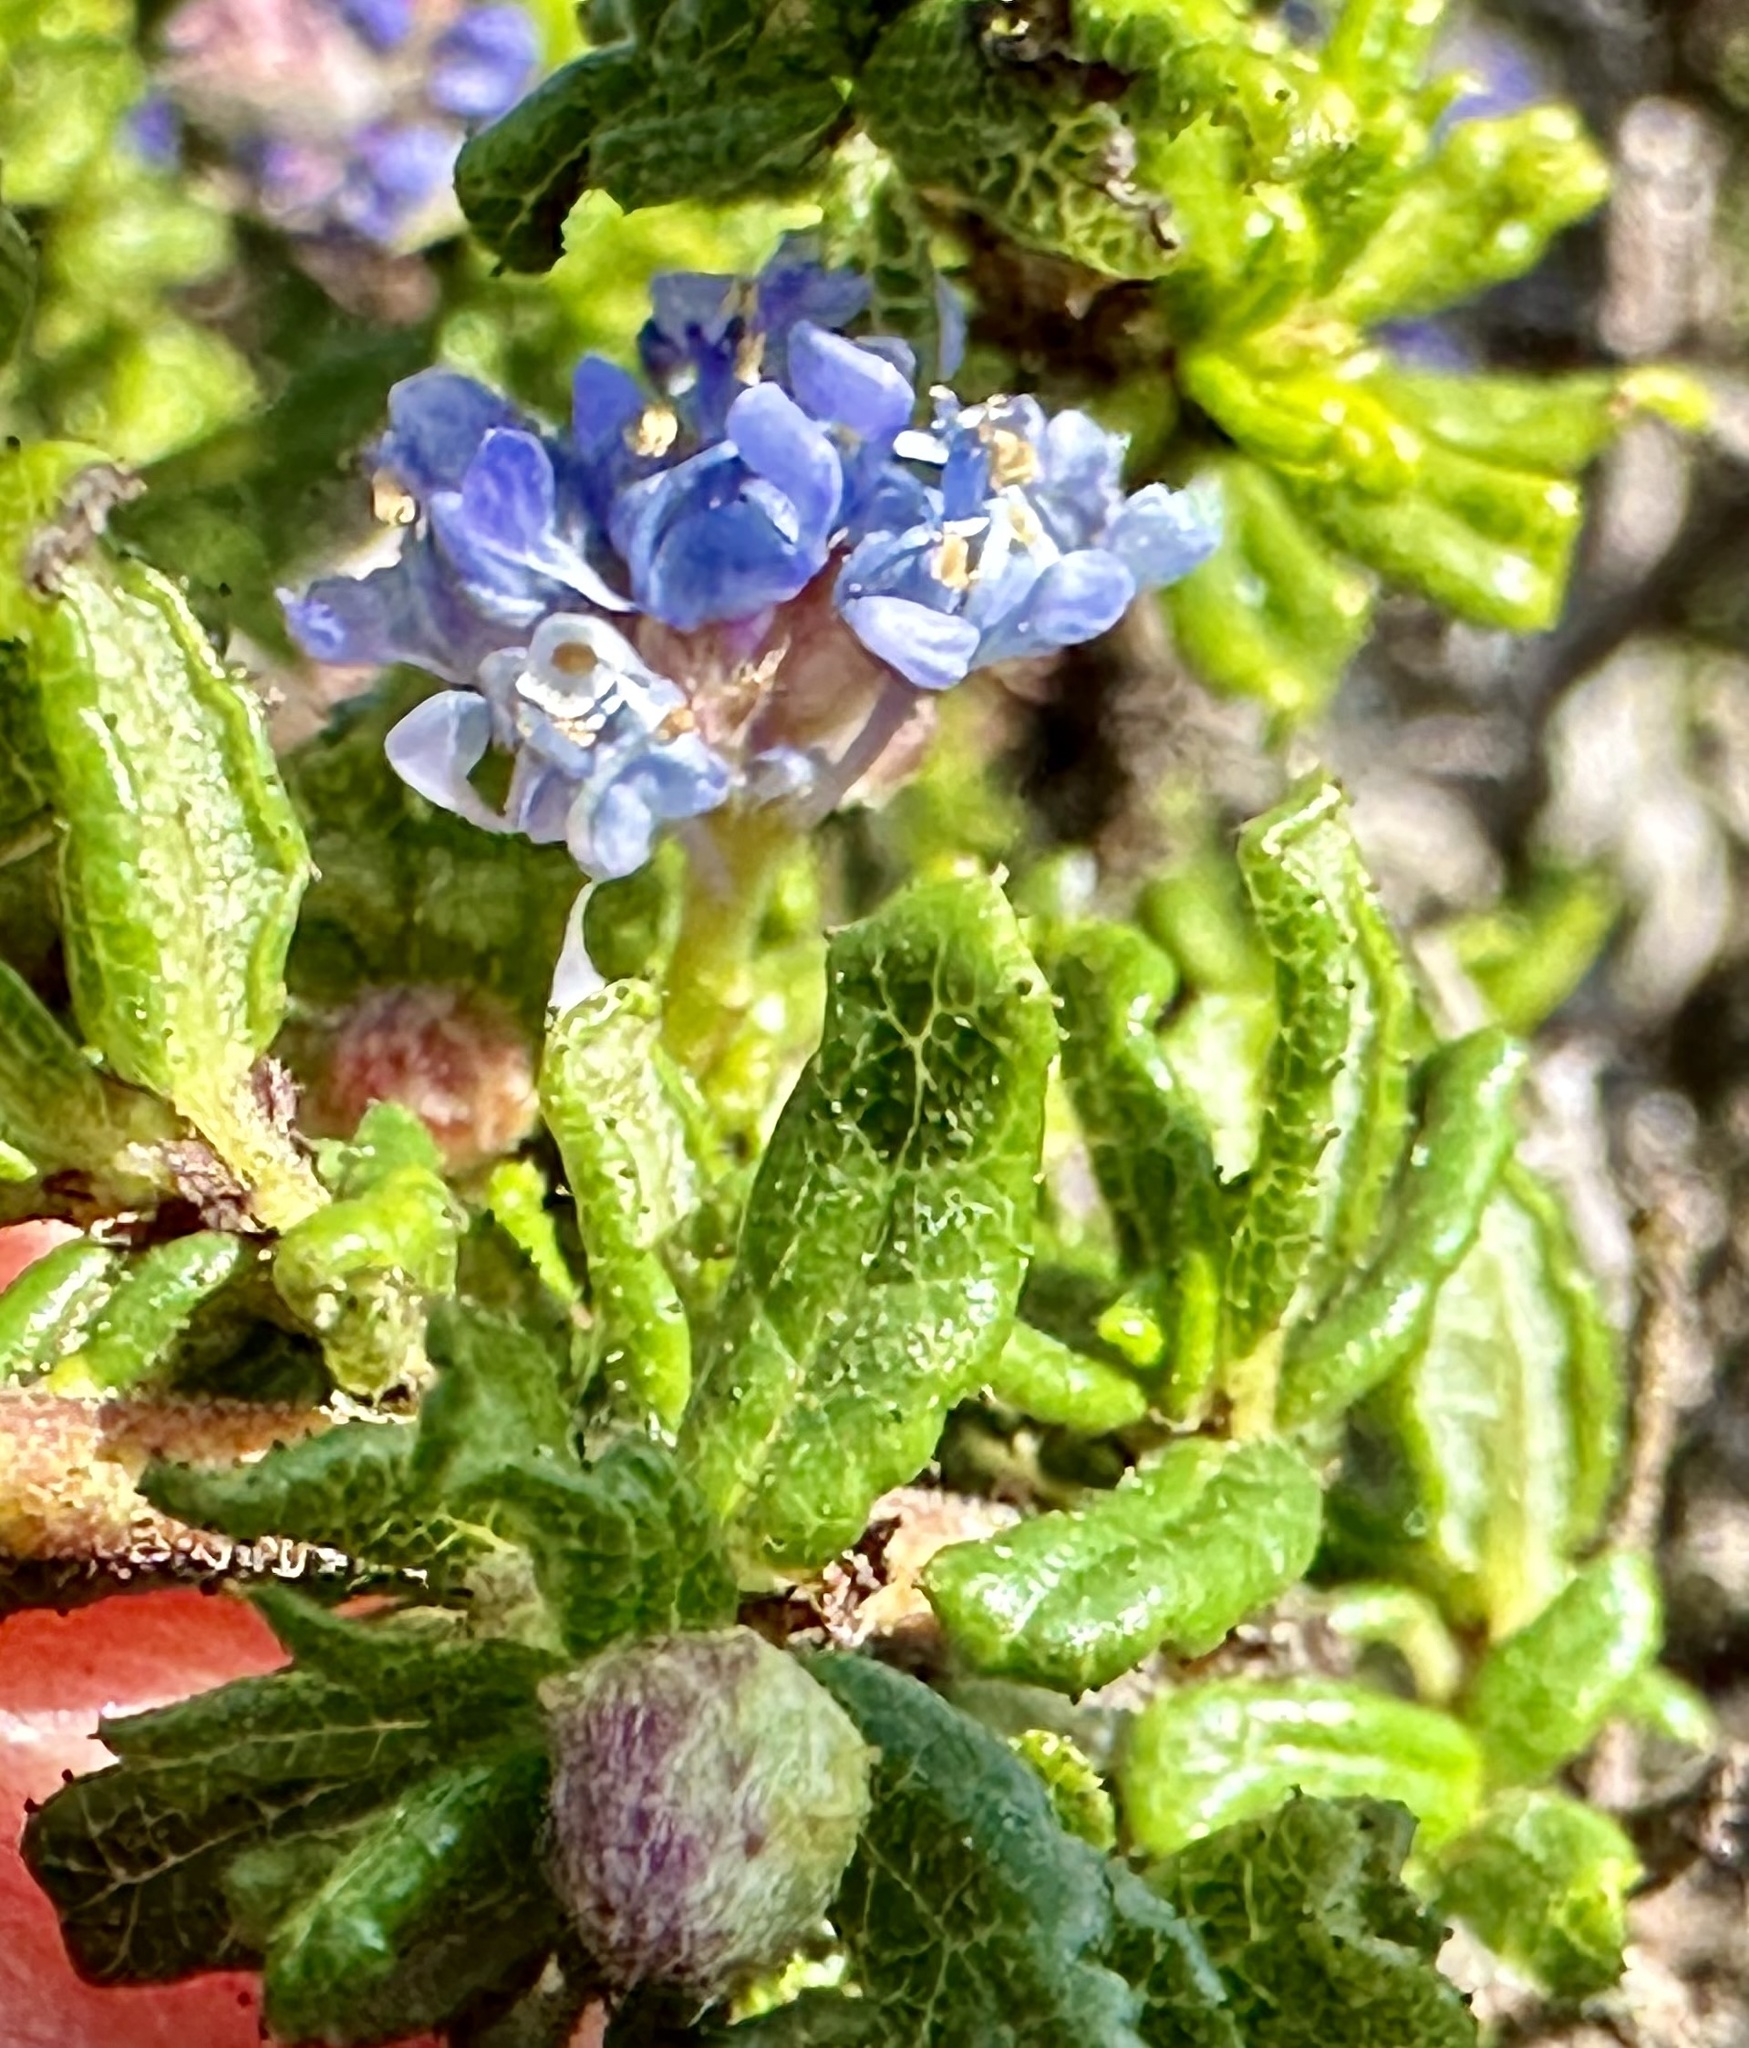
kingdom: Plantae
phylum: Tracheophyta
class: Magnoliopsida
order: Rosales
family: Rhamnaceae
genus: Ceanothus
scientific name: Ceanothus dentatus
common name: Crop-leaf ceanothus
